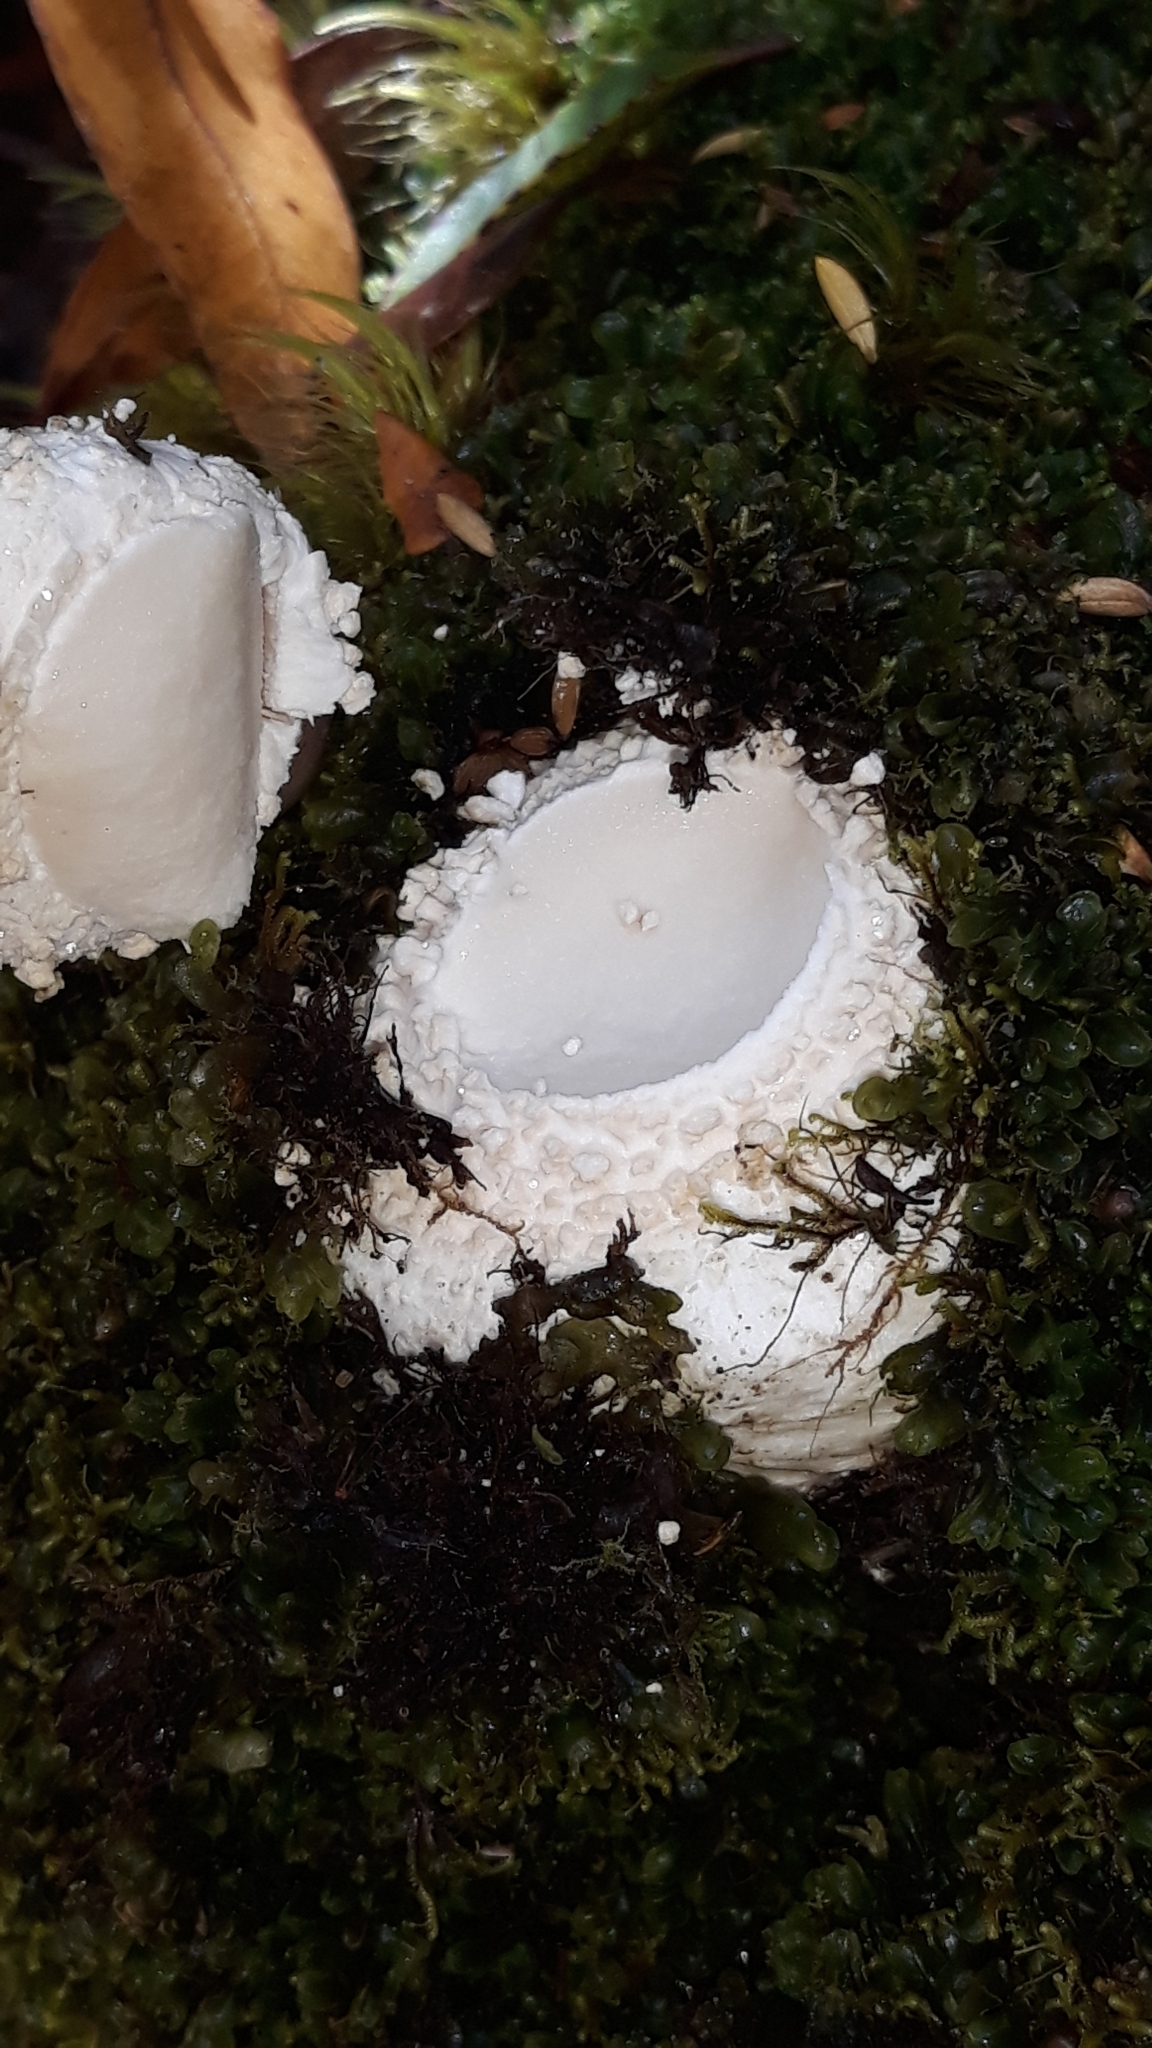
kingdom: Fungi
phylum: Basidiomycota
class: Agaricomycetes
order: Agaricales
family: Amanitaceae
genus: Amanita
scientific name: Amanita pareparina
